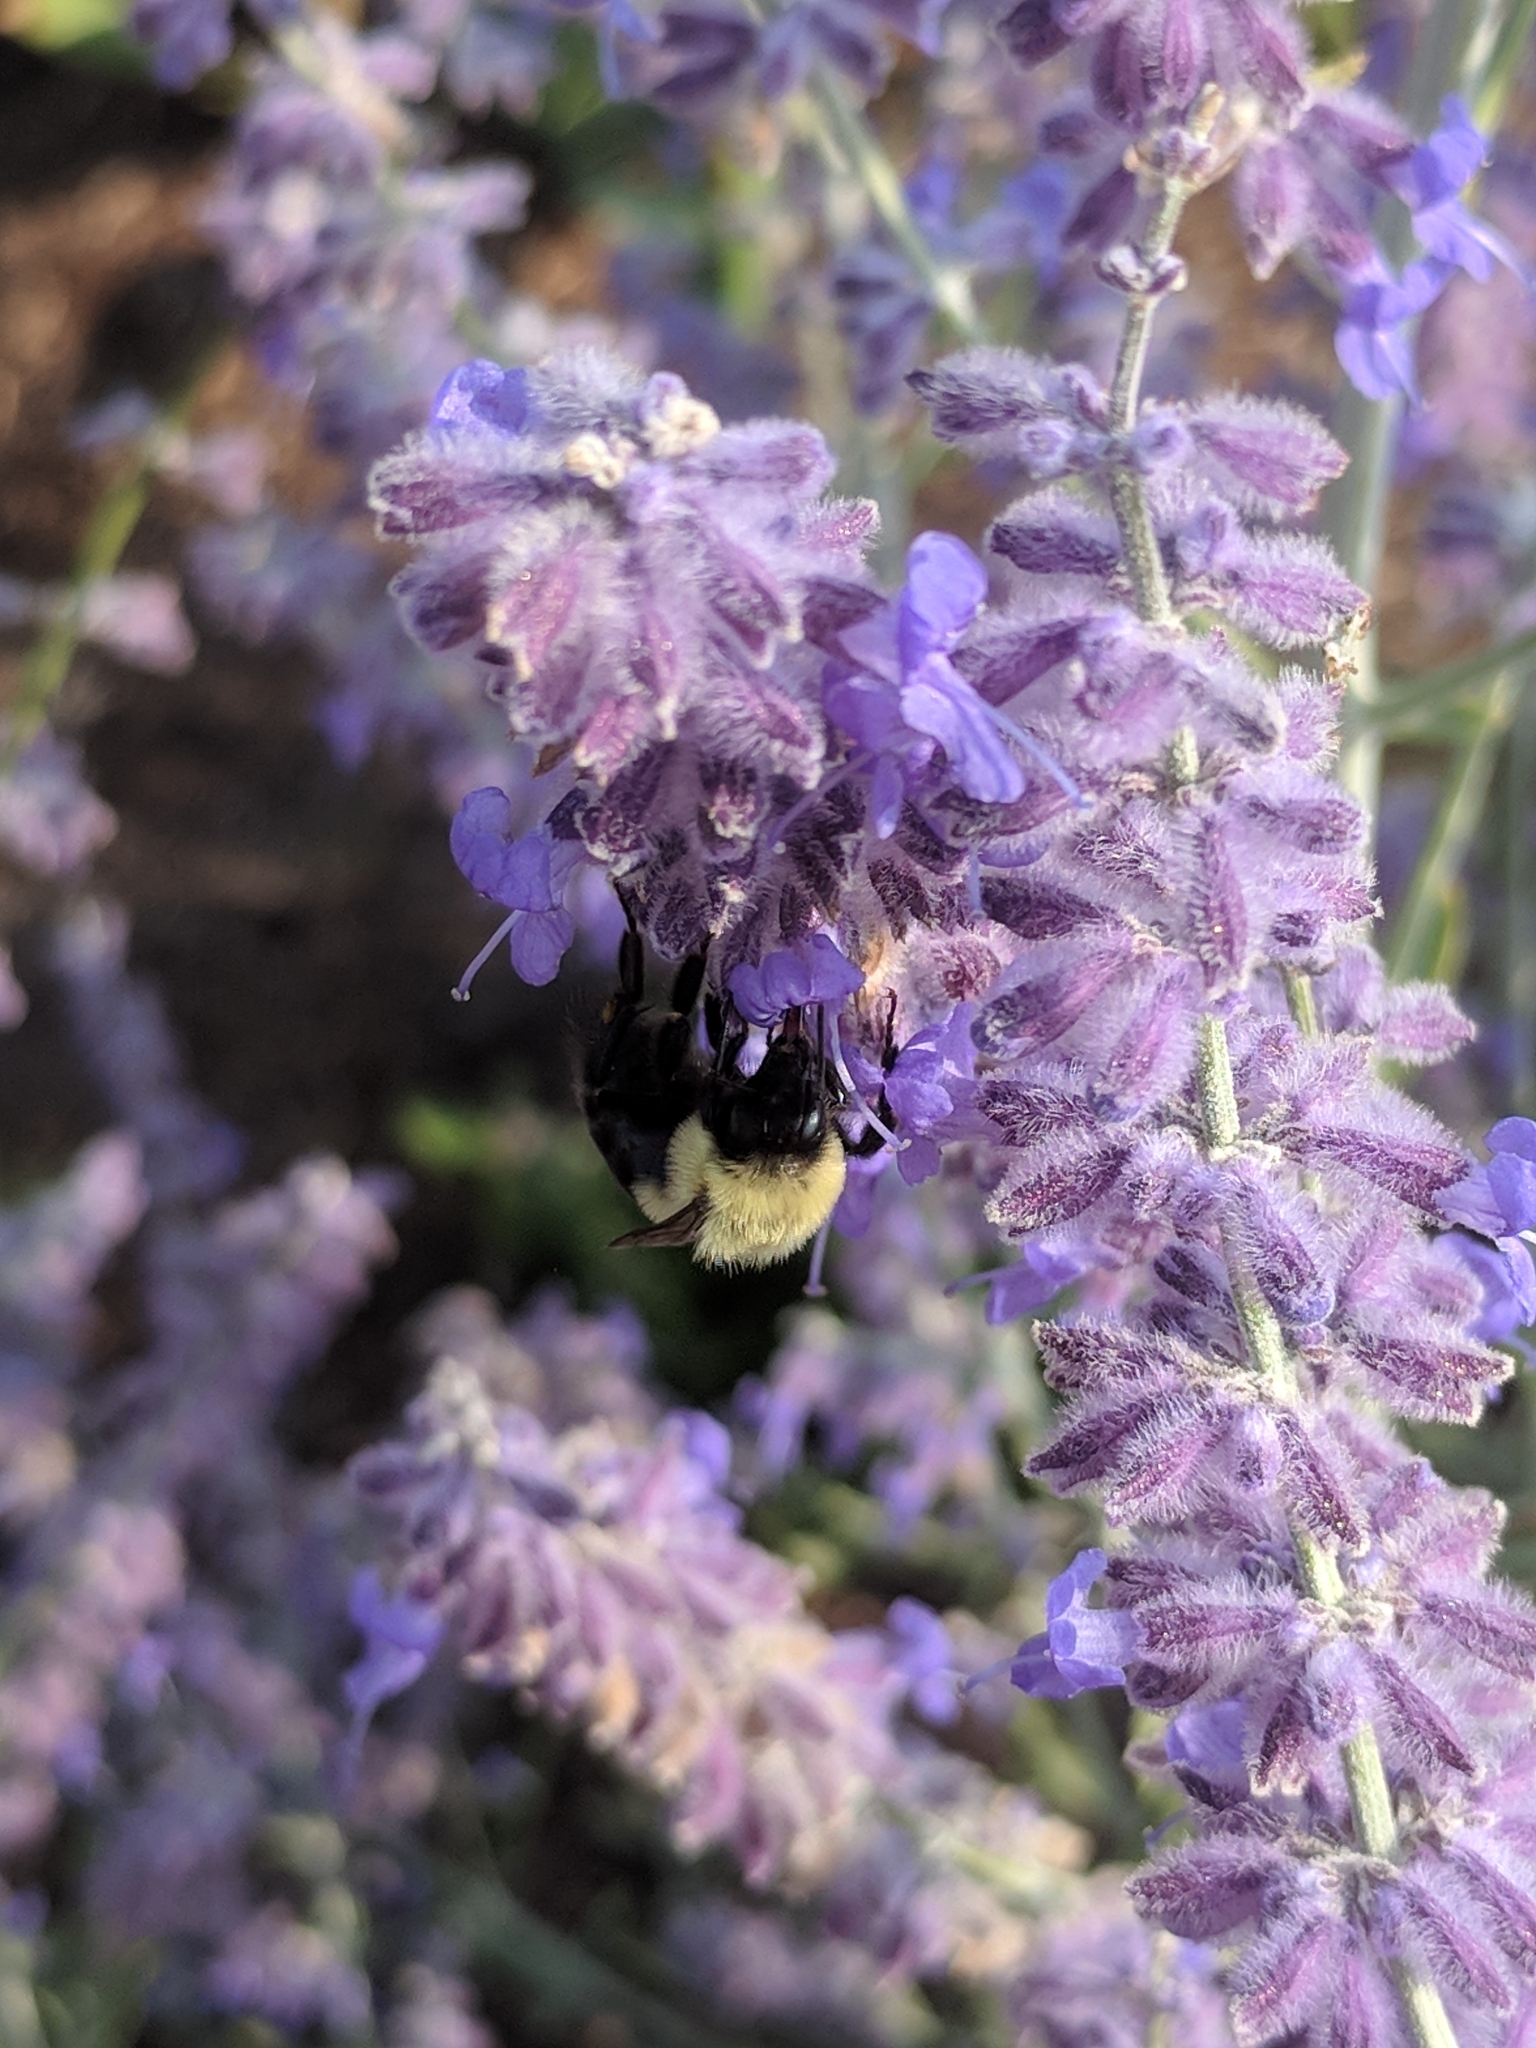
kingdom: Animalia
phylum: Arthropoda
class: Insecta
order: Hymenoptera
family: Apidae
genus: Bombus
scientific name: Bombus impatiens
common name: Common eastern bumble bee
